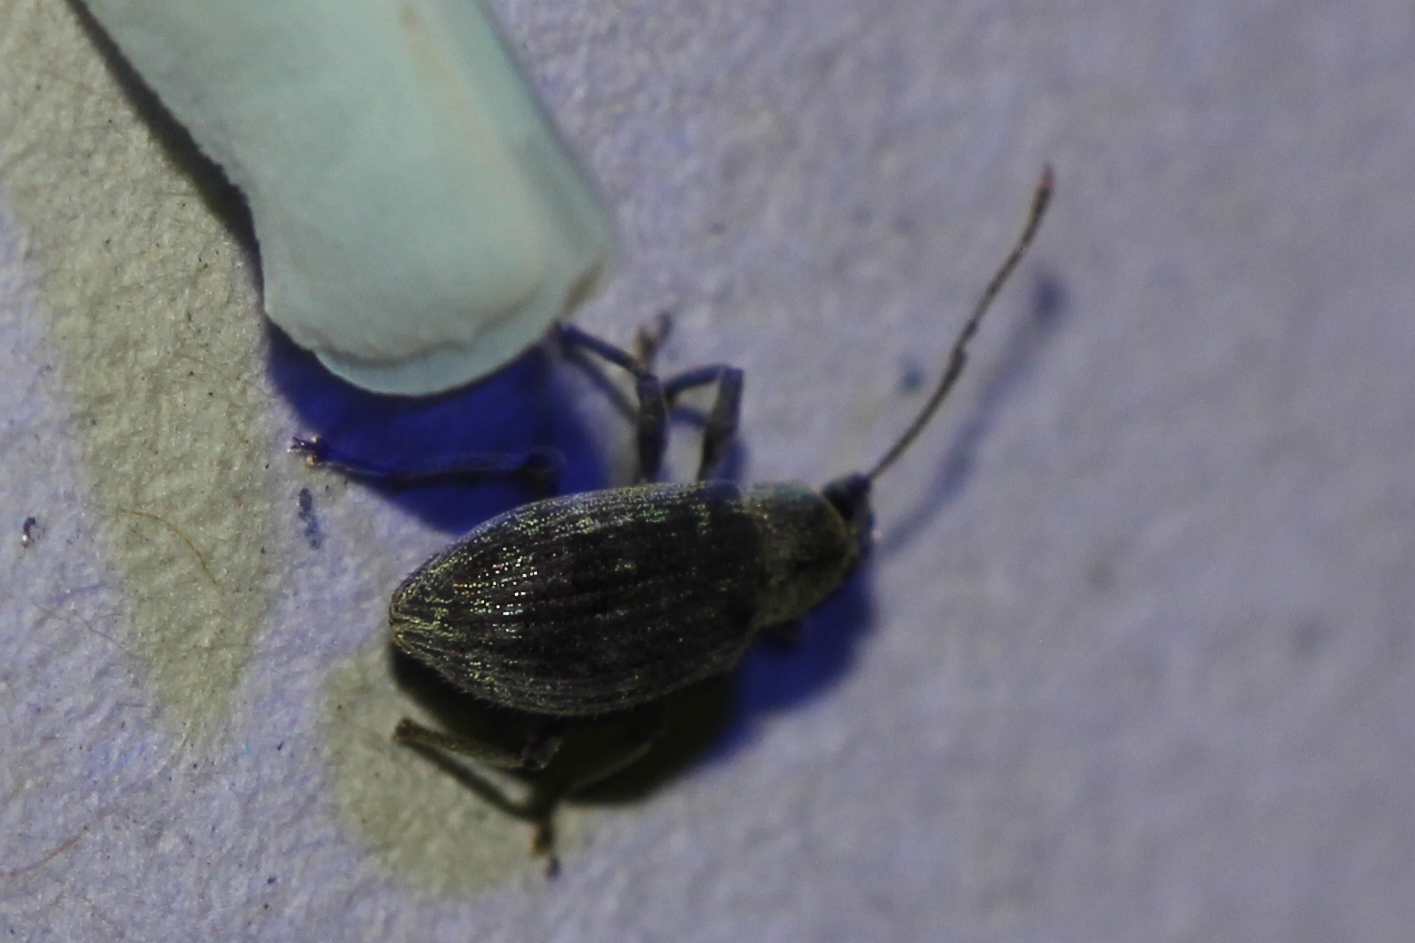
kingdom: Animalia
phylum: Arthropoda
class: Insecta
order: Coleoptera
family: Curculionidae
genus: Cyrtepistomus
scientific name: Cyrtepistomus castaneus
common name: Weevil
